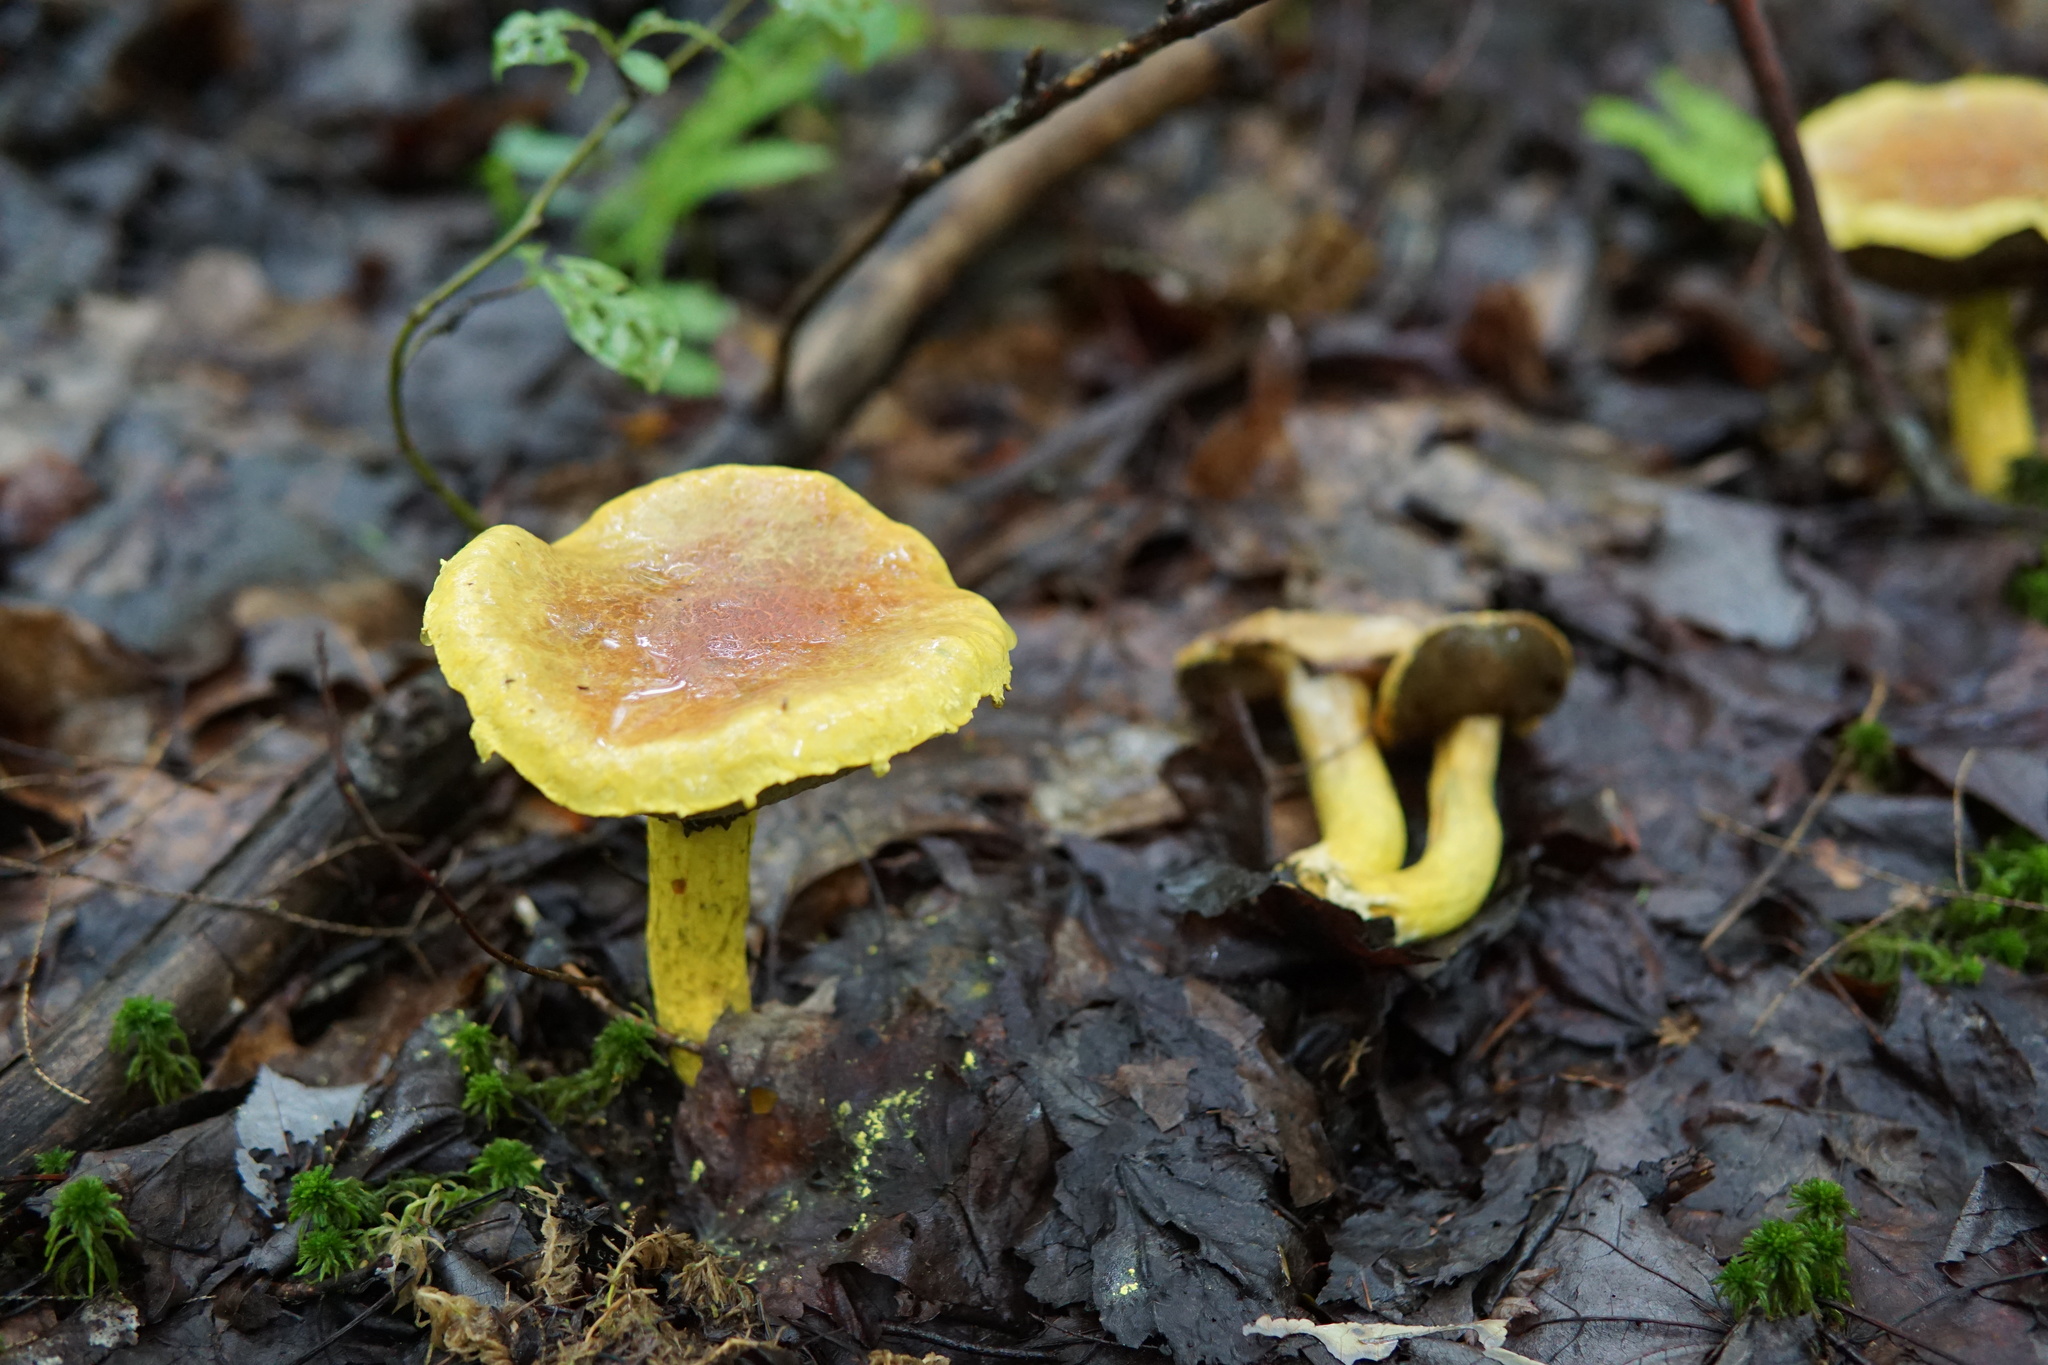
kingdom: Fungi
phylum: Basidiomycota
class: Agaricomycetes
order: Boletales
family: Boletaceae
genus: Pulveroboletus
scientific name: Pulveroboletus ravenelii
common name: Powdery sulfur bolete
